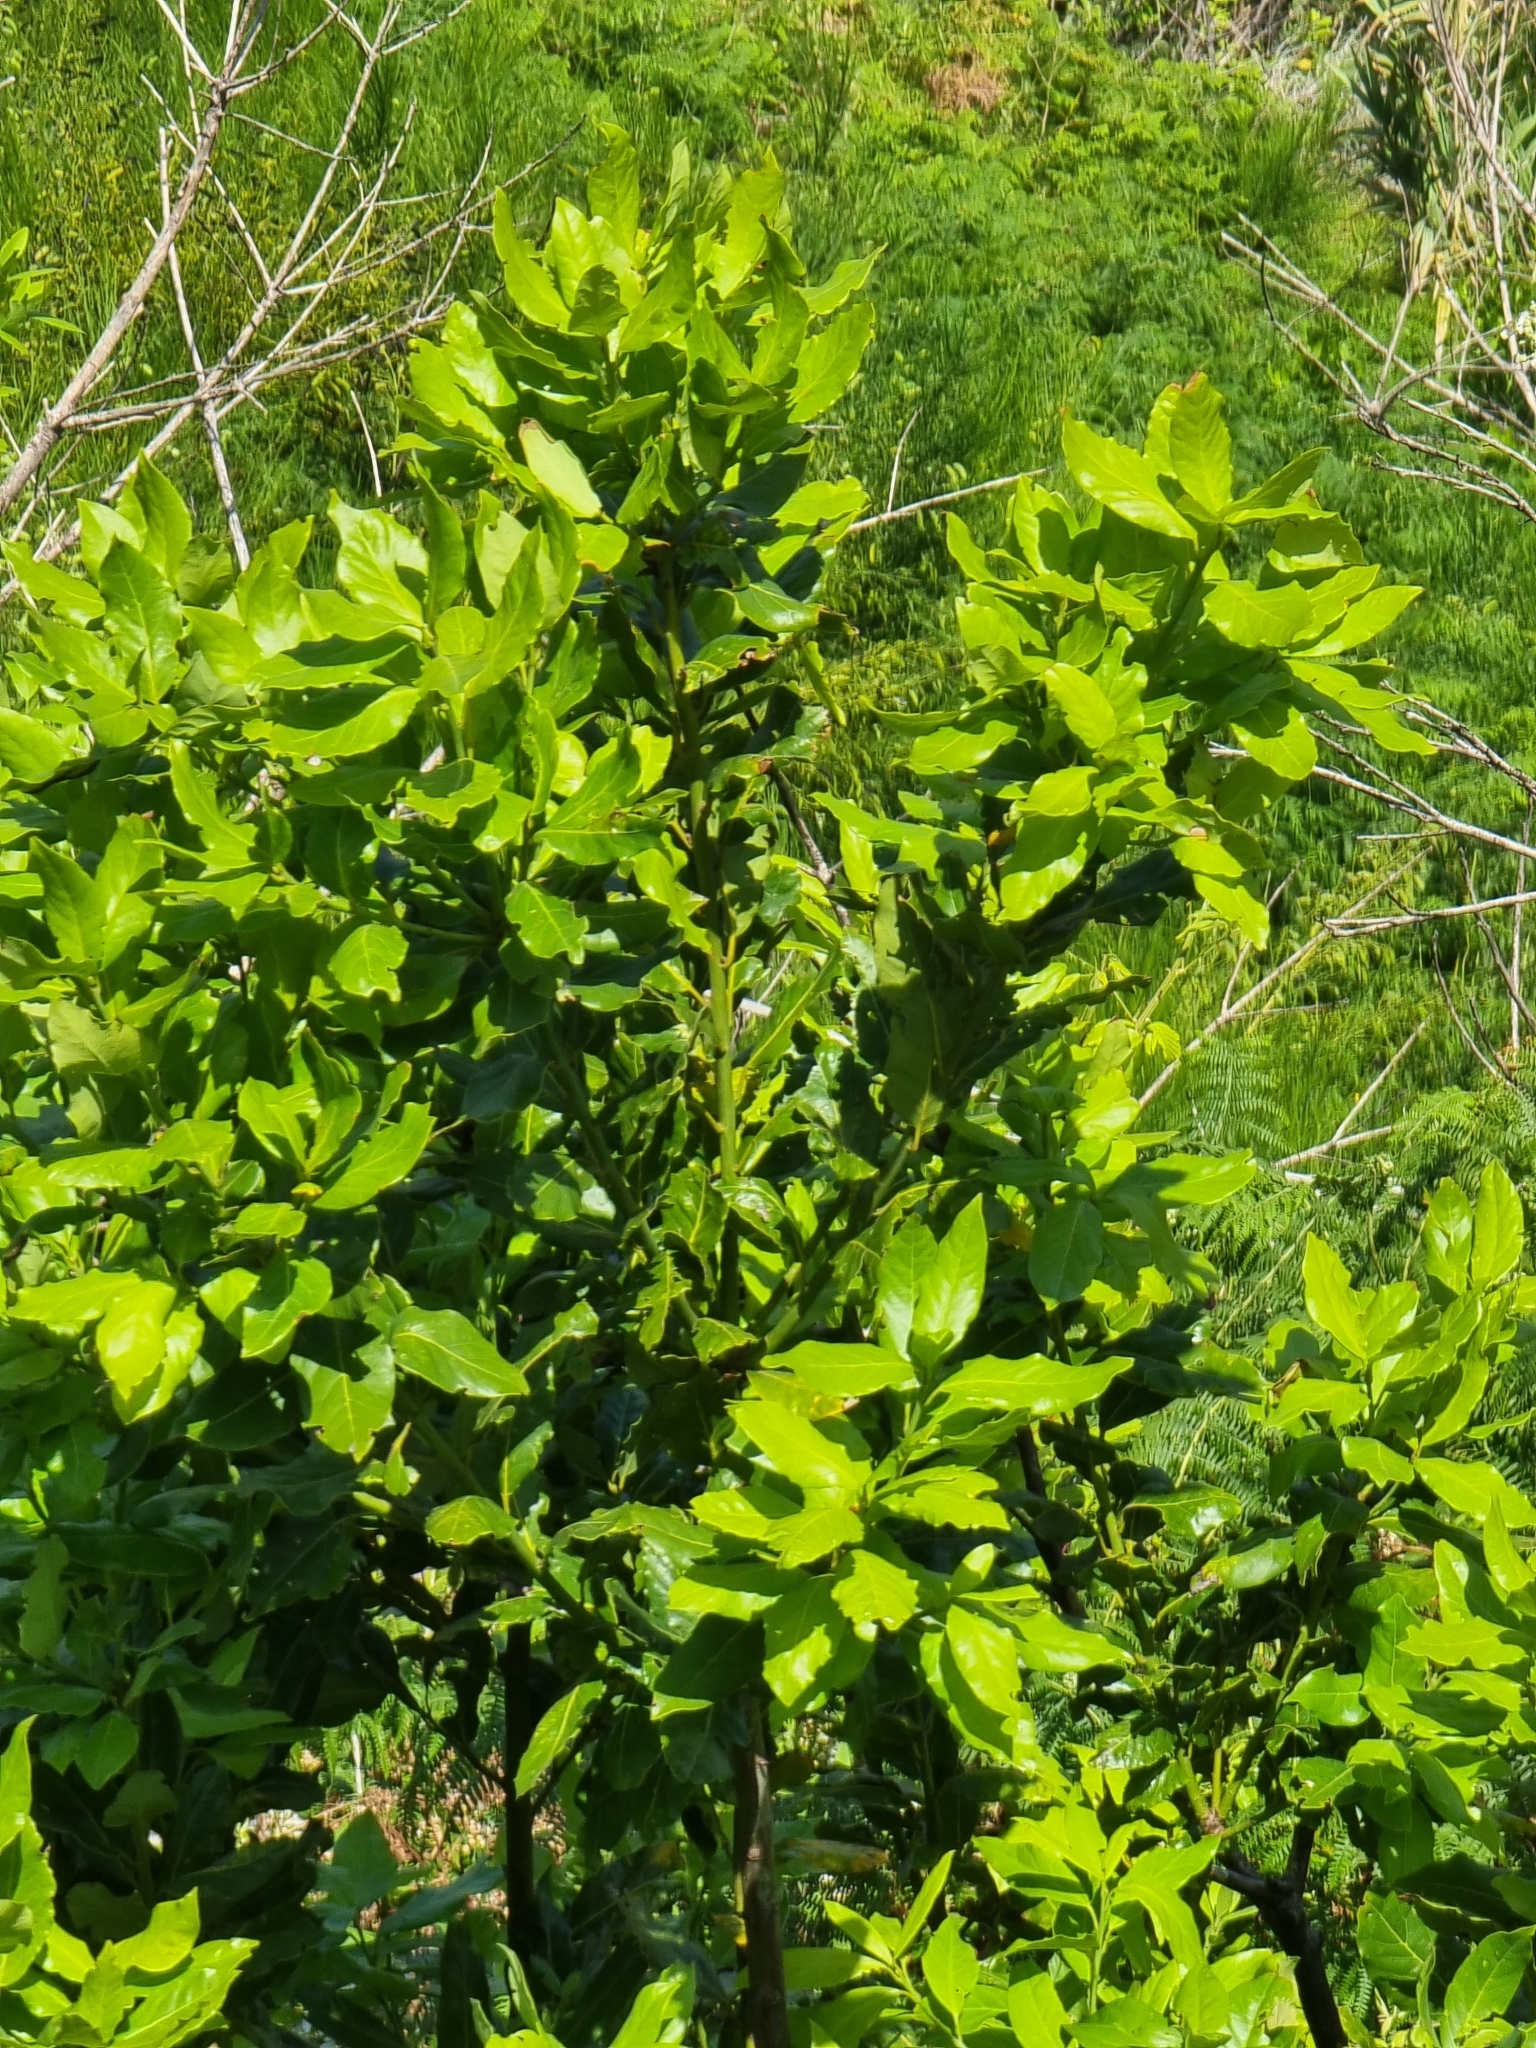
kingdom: Plantae
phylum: Tracheophyta
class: Magnoliopsida
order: Laurales
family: Lauraceae
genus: Laurus
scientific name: Laurus novocanariensis
